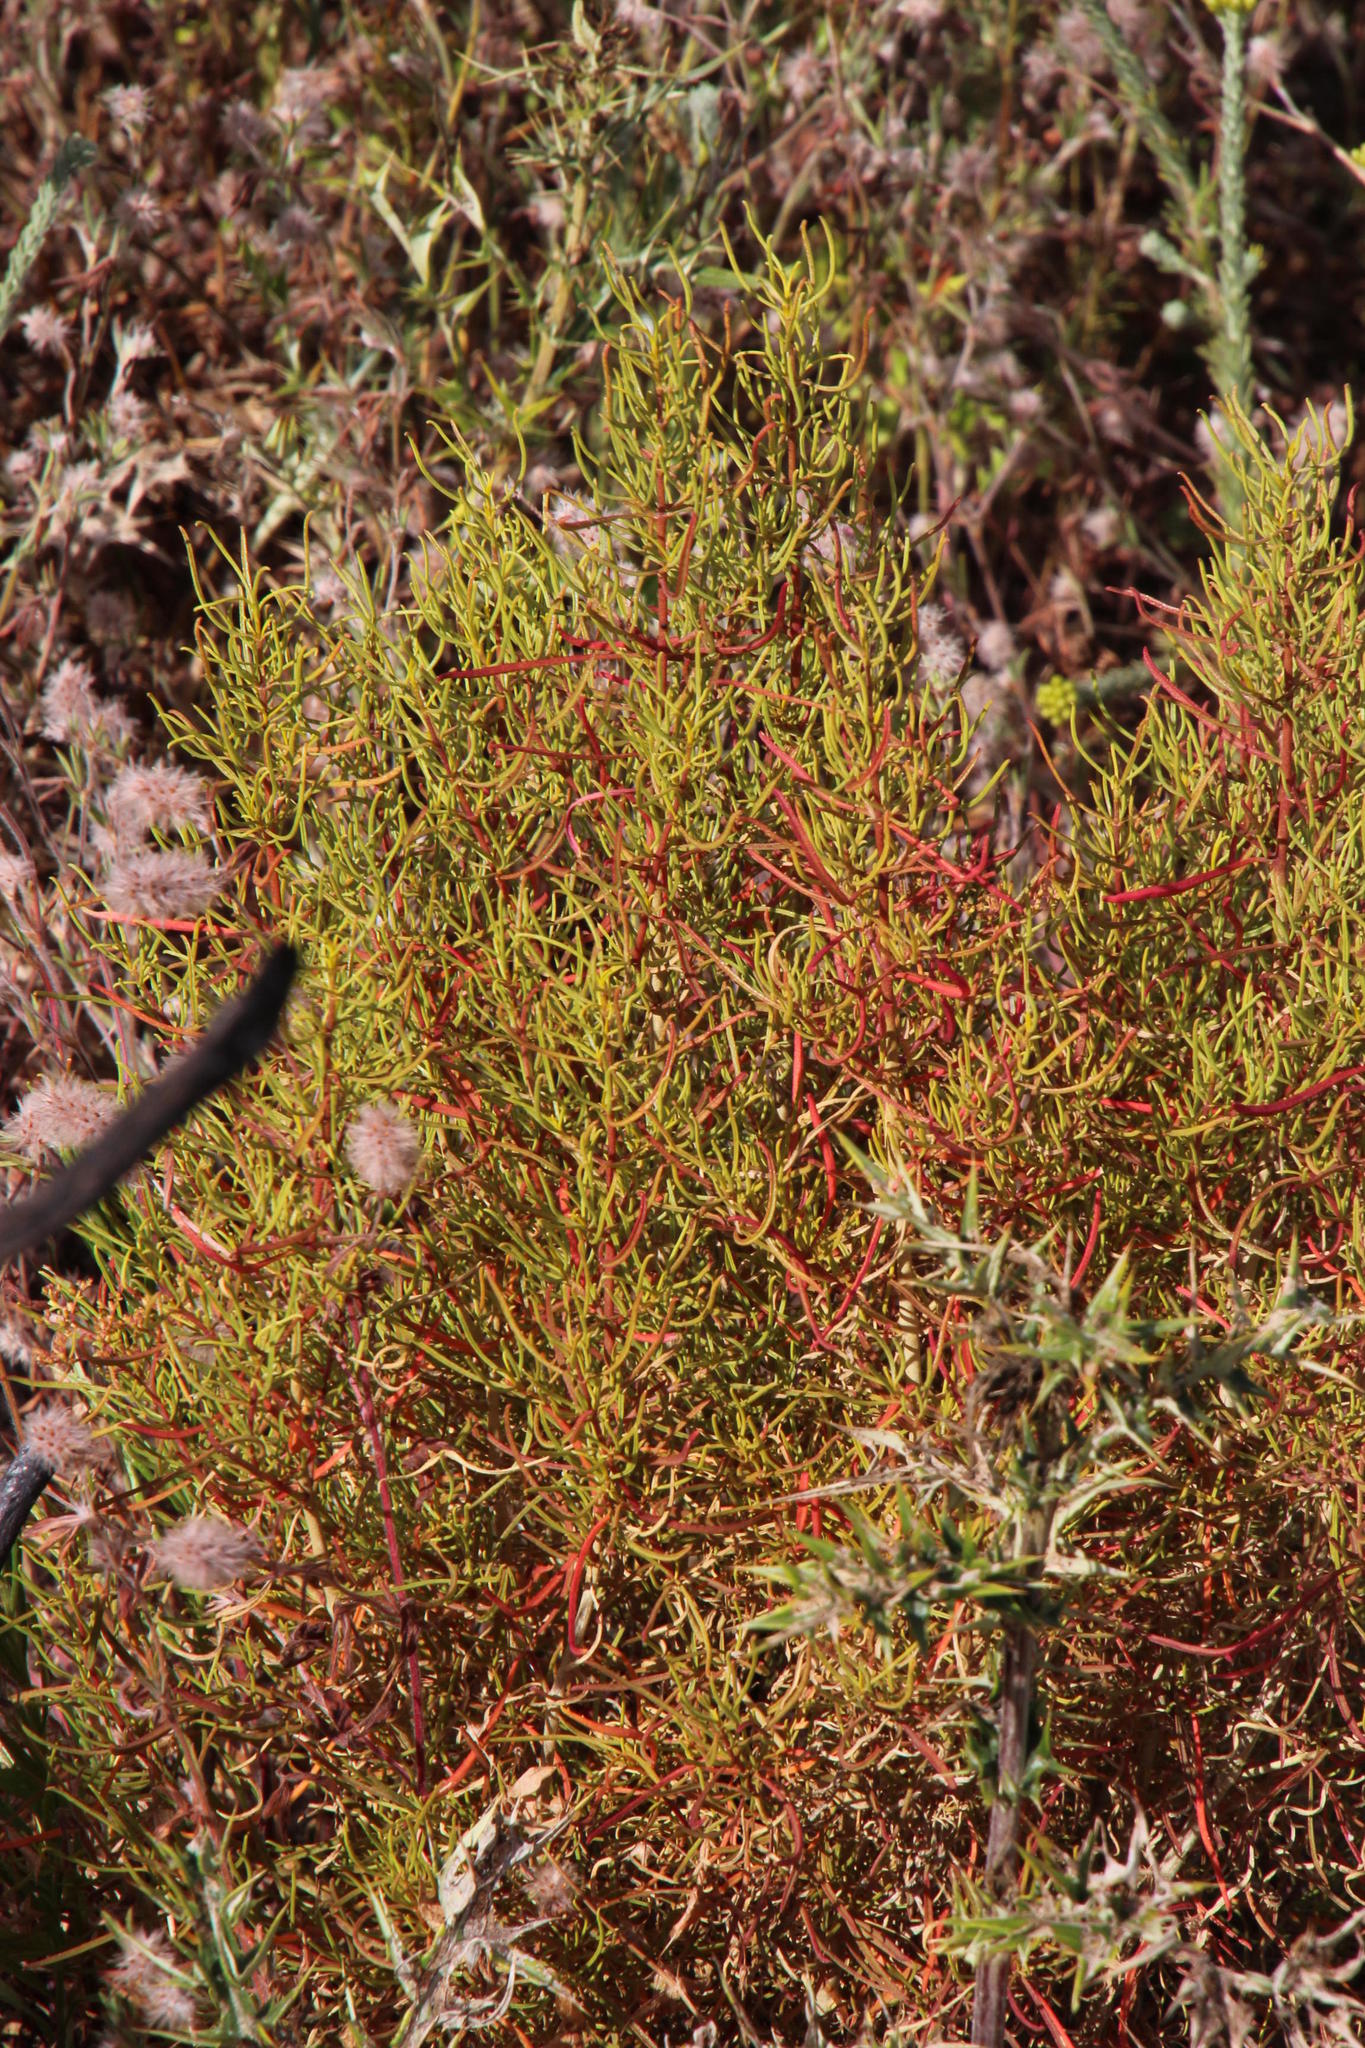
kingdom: Plantae
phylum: Tracheophyta
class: Magnoliopsida
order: Caryophyllales
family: Aizoaceae
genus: Aizoon
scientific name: Aizoon africanum
